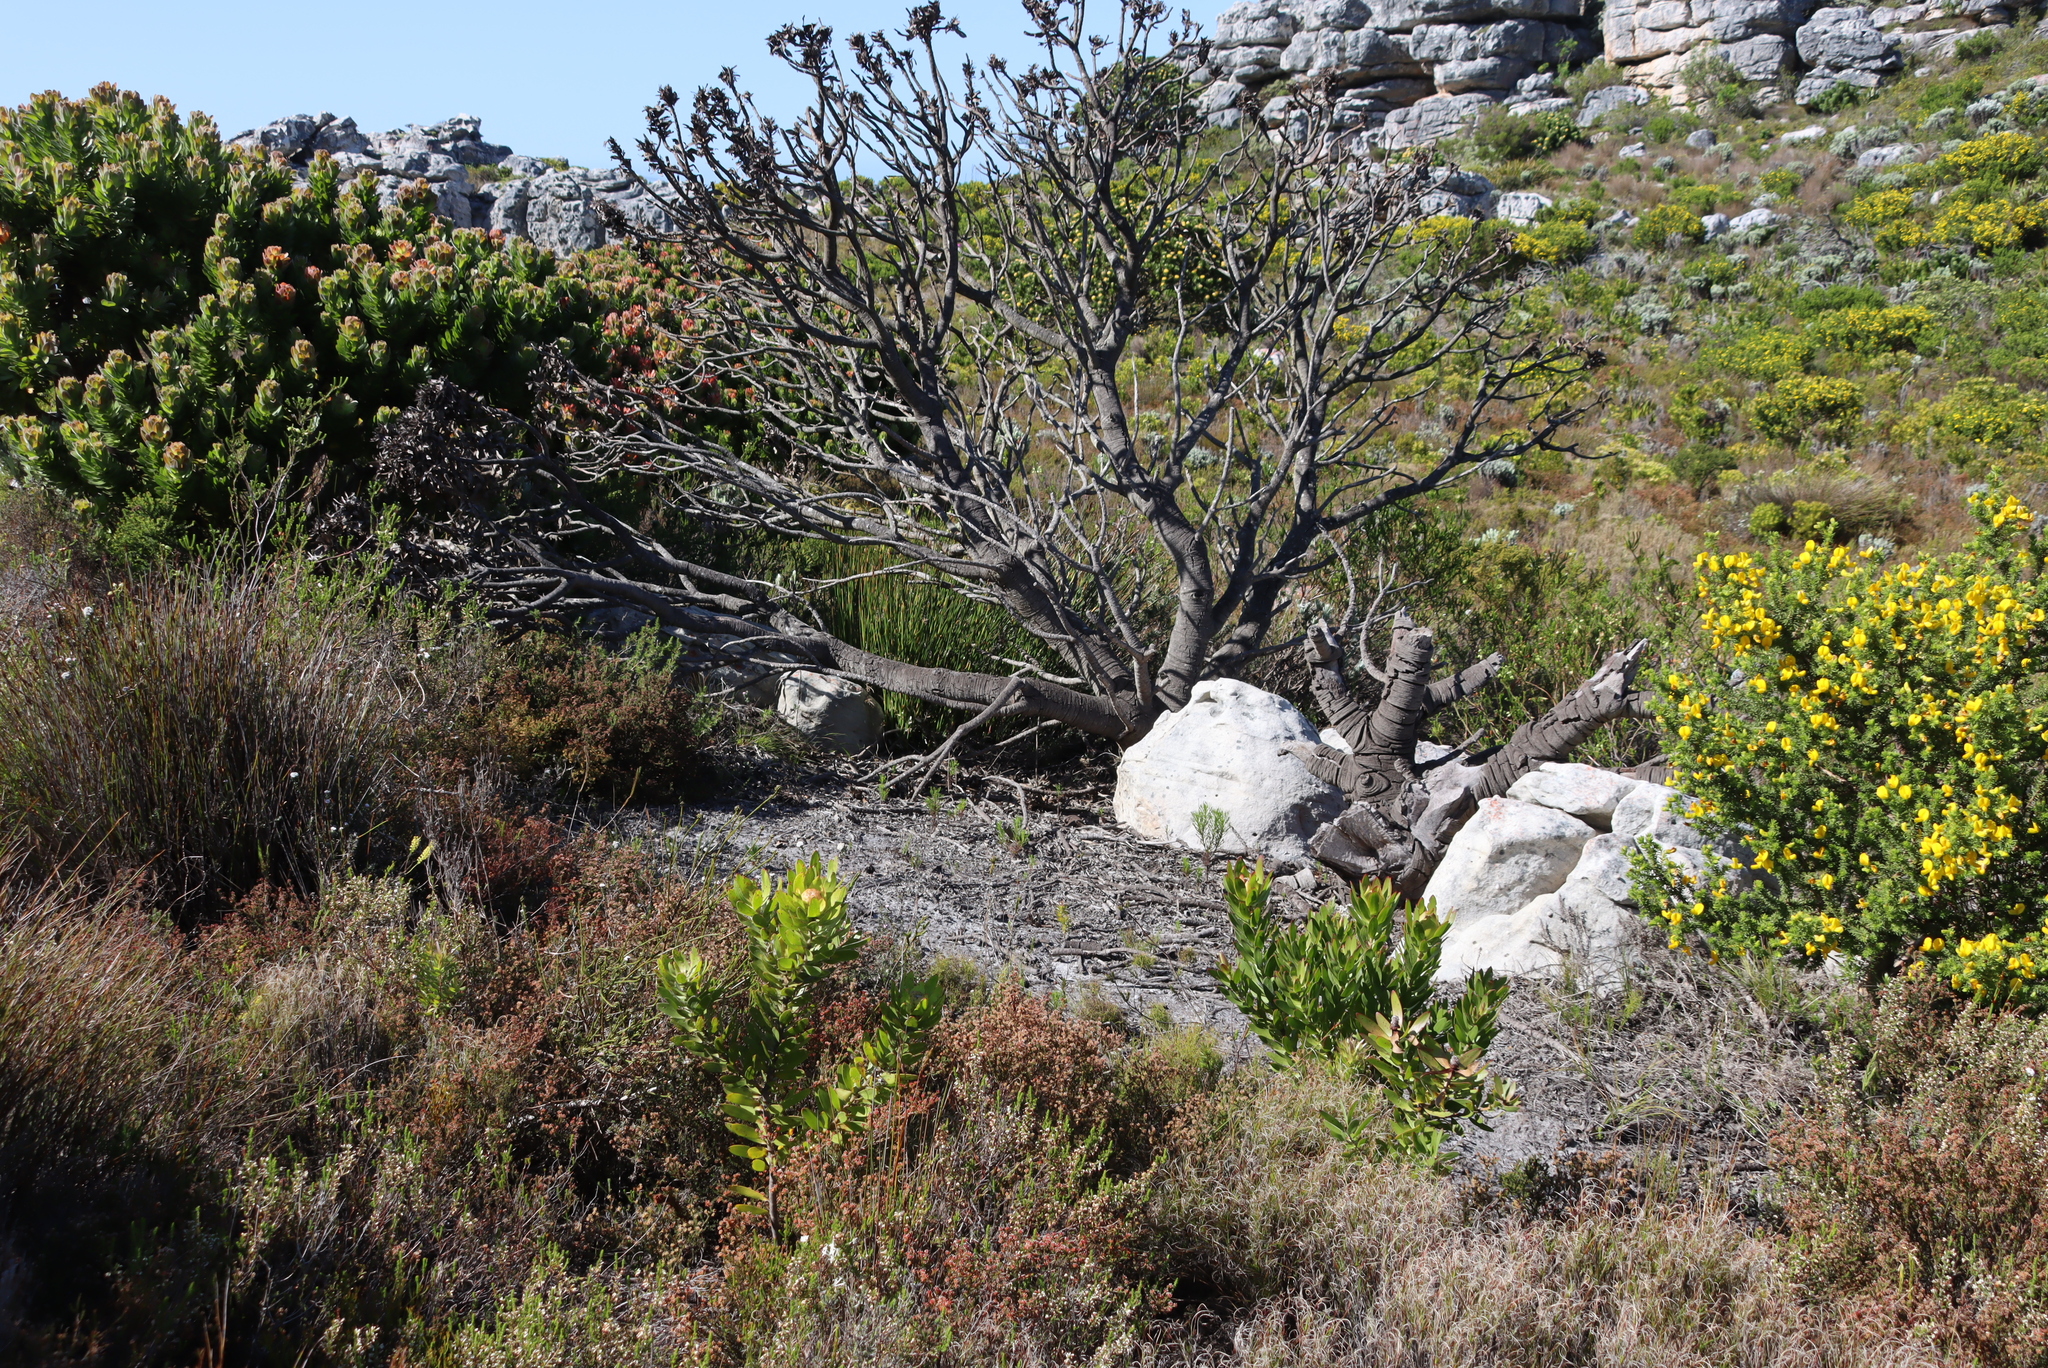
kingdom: Plantae
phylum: Tracheophyta
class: Magnoliopsida
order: Proteales
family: Proteaceae
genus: Mimetes
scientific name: Mimetes fimbriifolius
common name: Fringed bottlebrush
